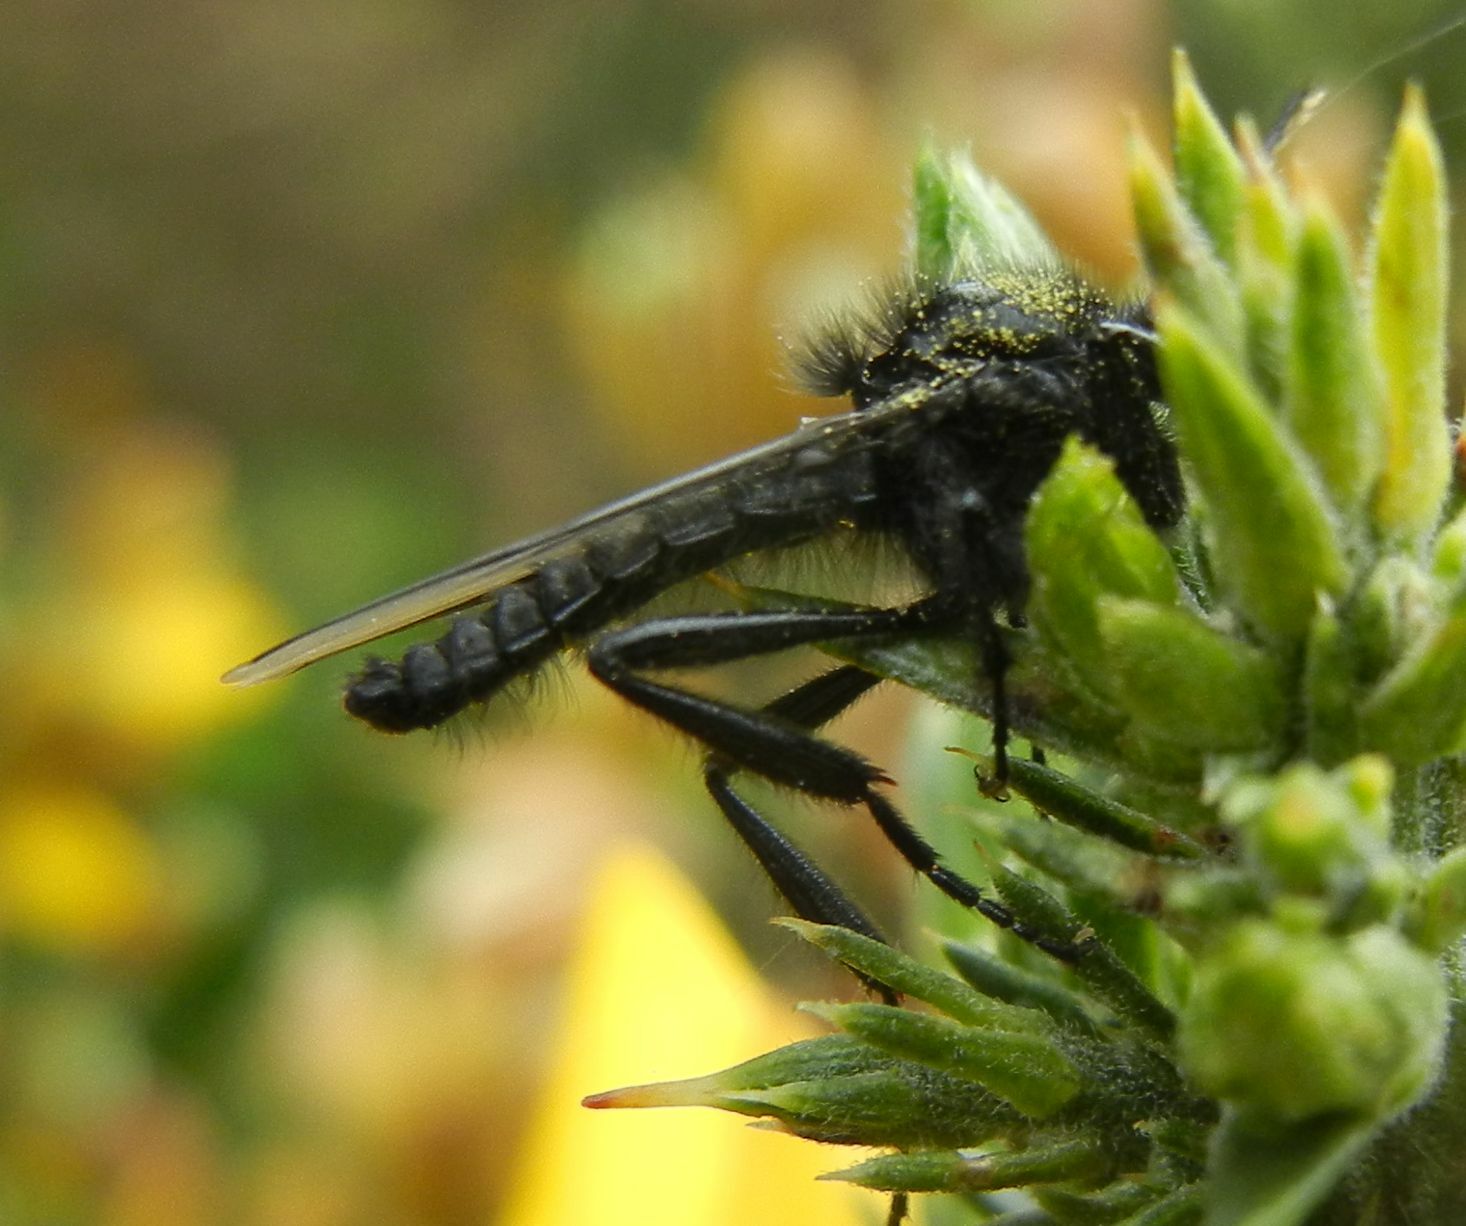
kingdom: Animalia
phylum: Arthropoda
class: Insecta
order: Diptera
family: Bibionidae
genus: Bibio
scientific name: Bibio marci
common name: St marks fly
